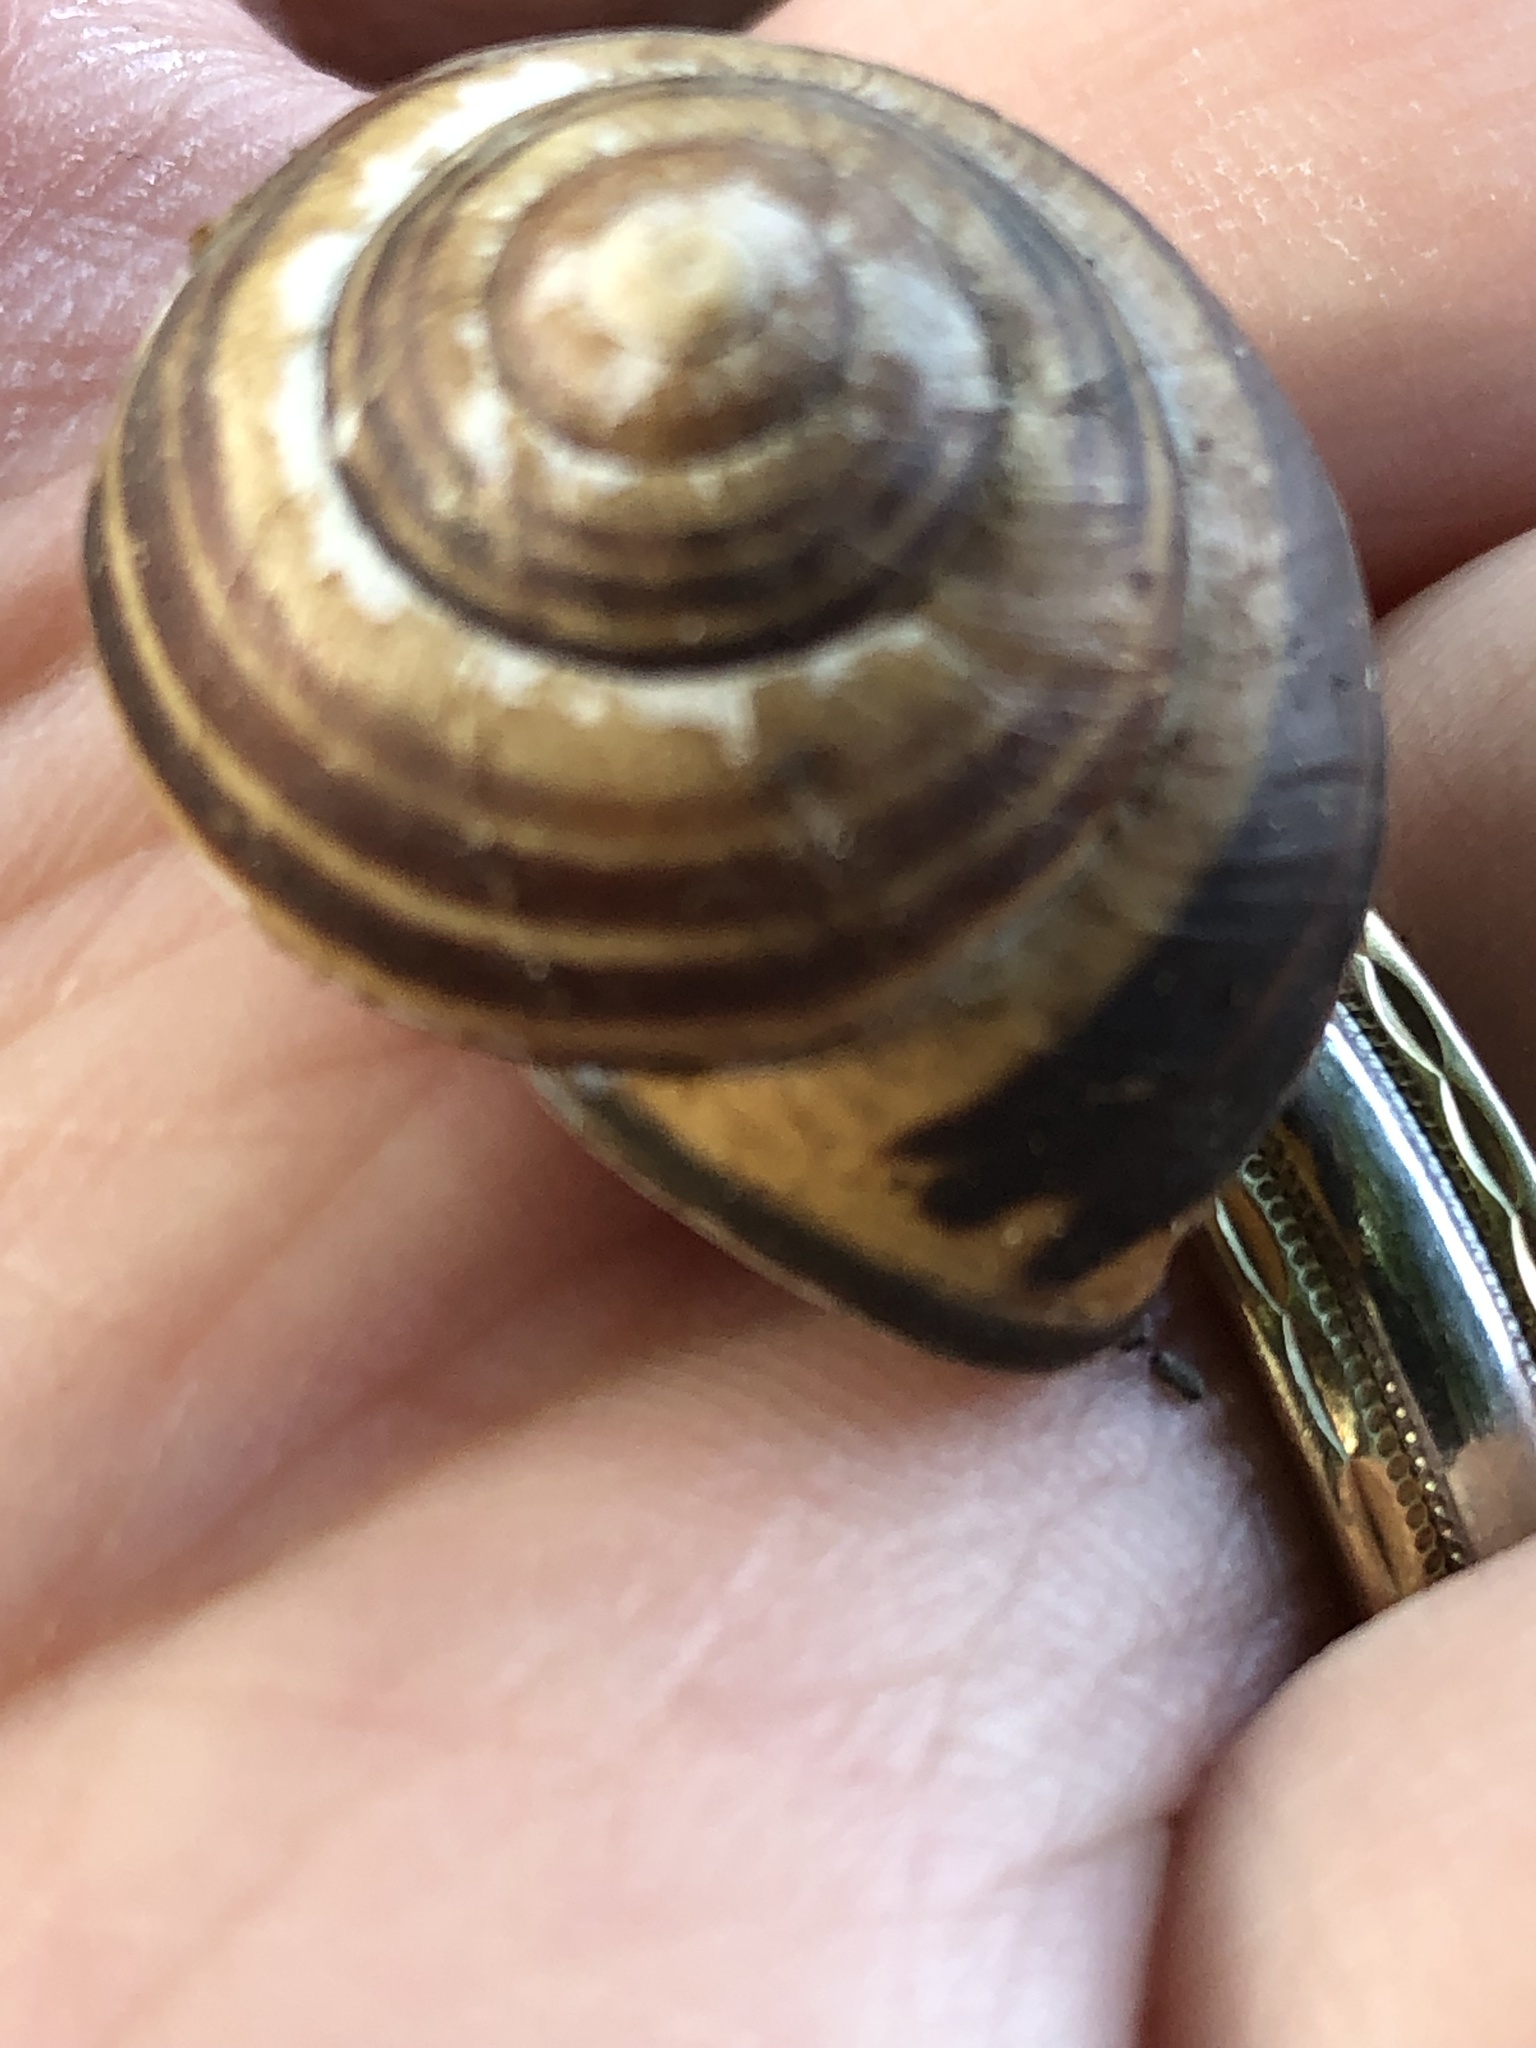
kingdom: Animalia
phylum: Mollusca
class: Gastropoda
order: Stylommatophora
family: Helicidae
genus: Cepaea
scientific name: Cepaea nemoralis
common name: Grovesnail
